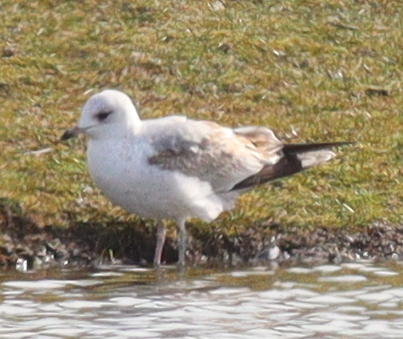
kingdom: Animalia
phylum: Chordata
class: Aves
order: Charadriiformes
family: Laridae
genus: Larus
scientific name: Larus canus
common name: Mew gull
